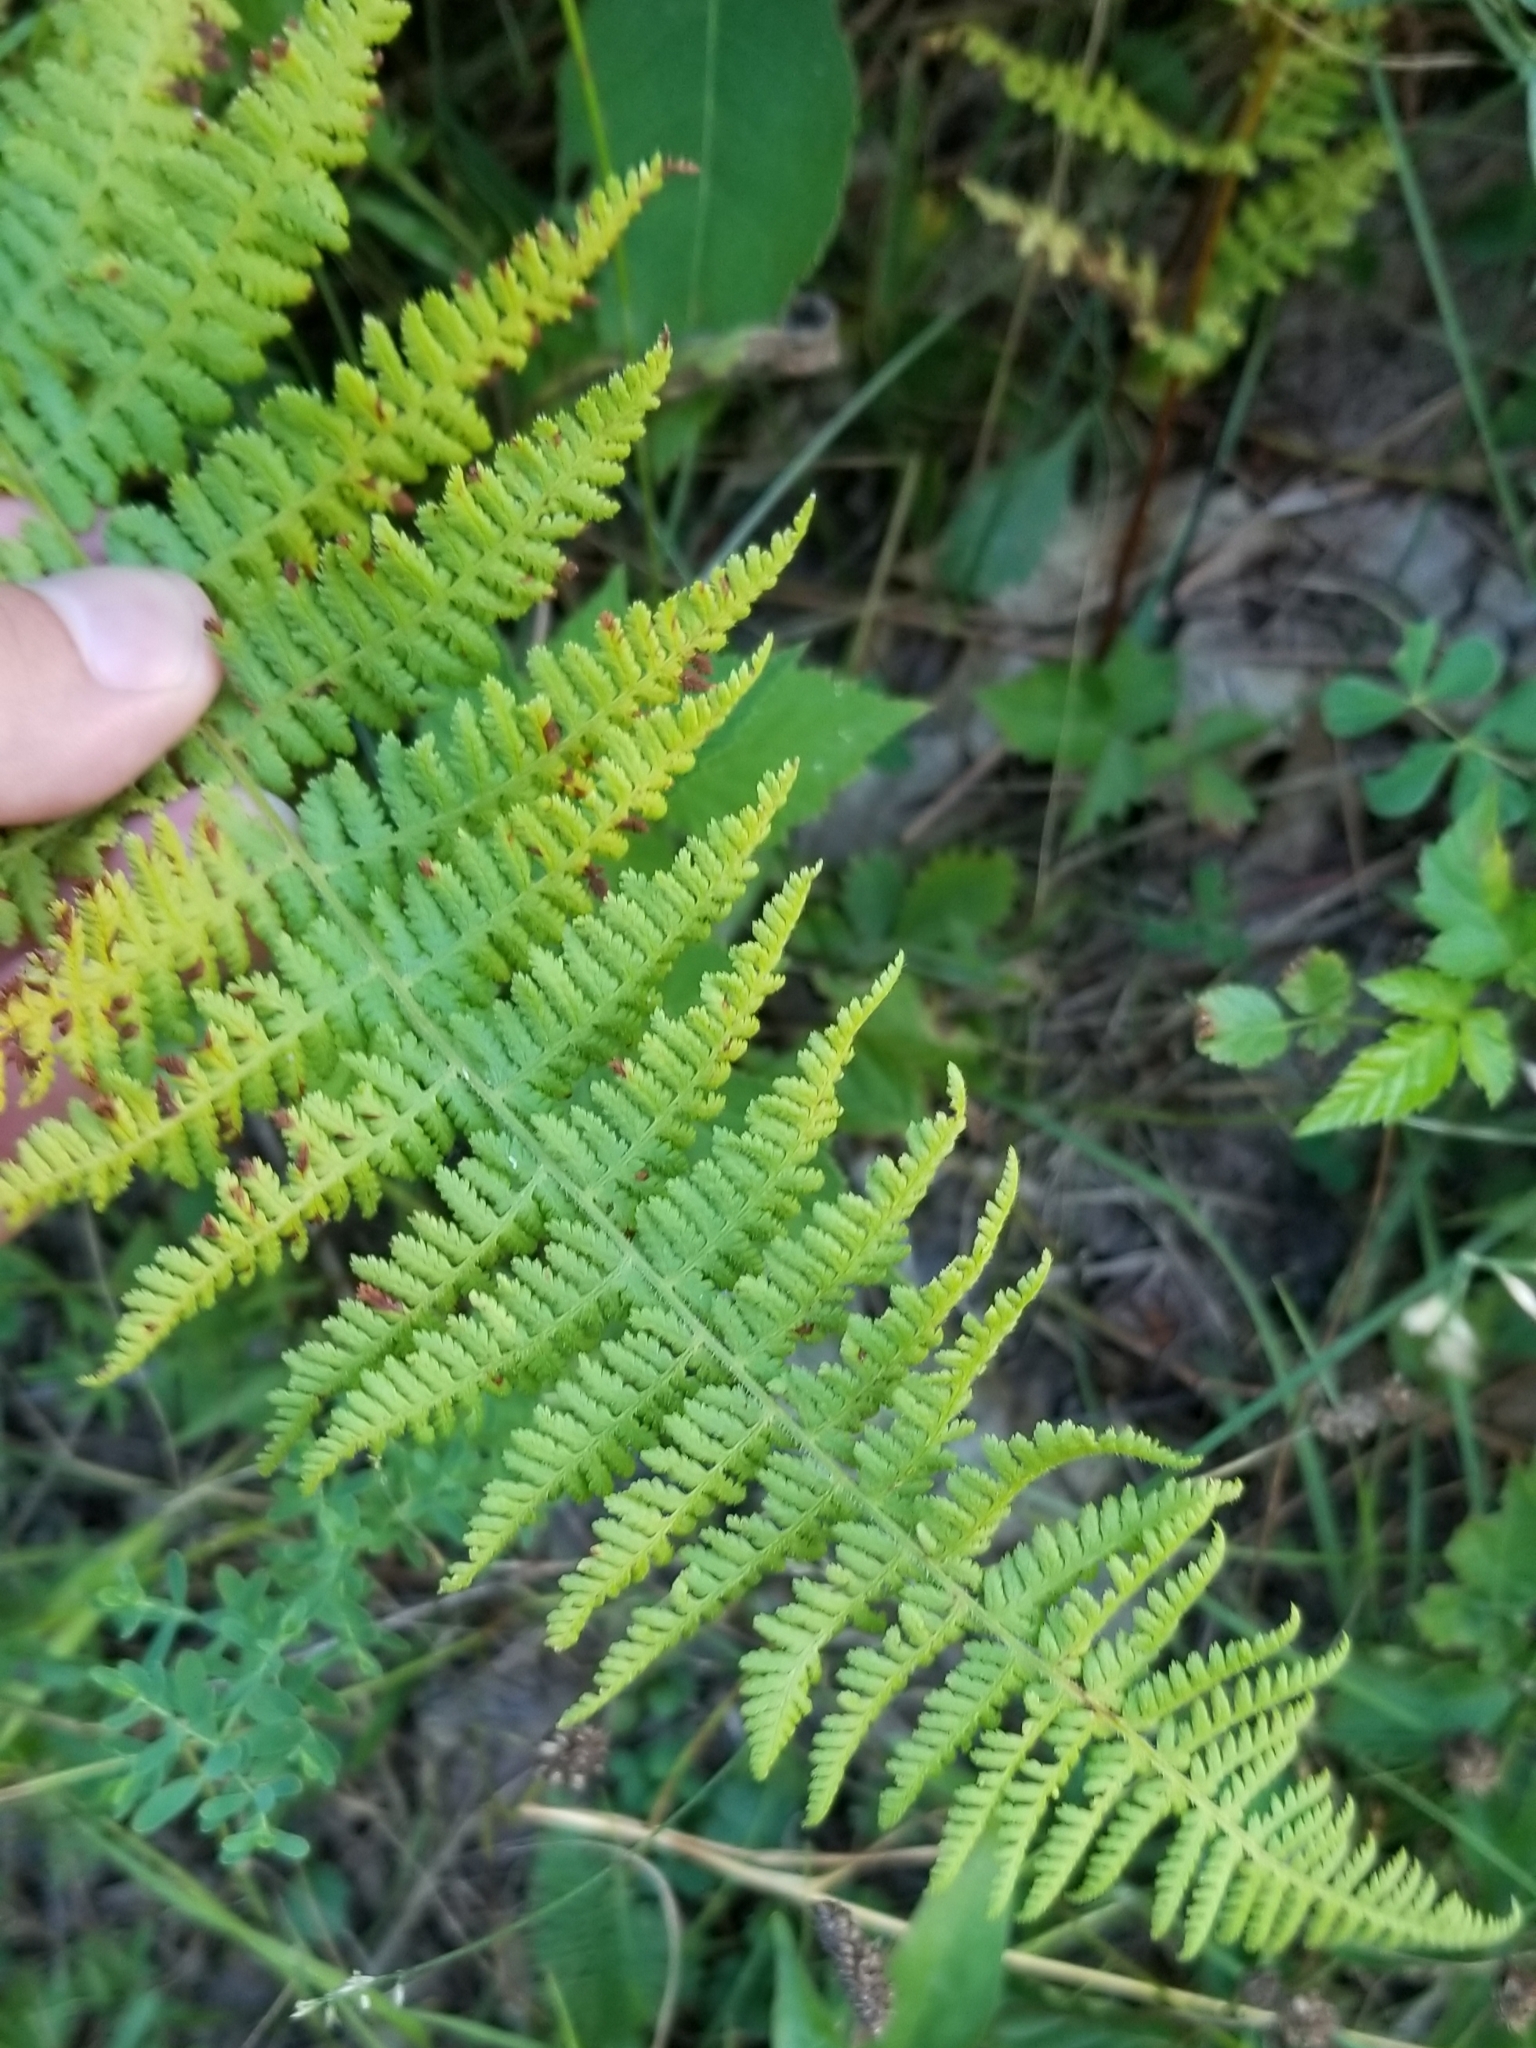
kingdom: Plantae
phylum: Tracheophyta
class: Polypodiopsida
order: Polypodiales
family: Dennstaedtiaceae
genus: Sitobolium
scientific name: Sitobolium punctilobum
